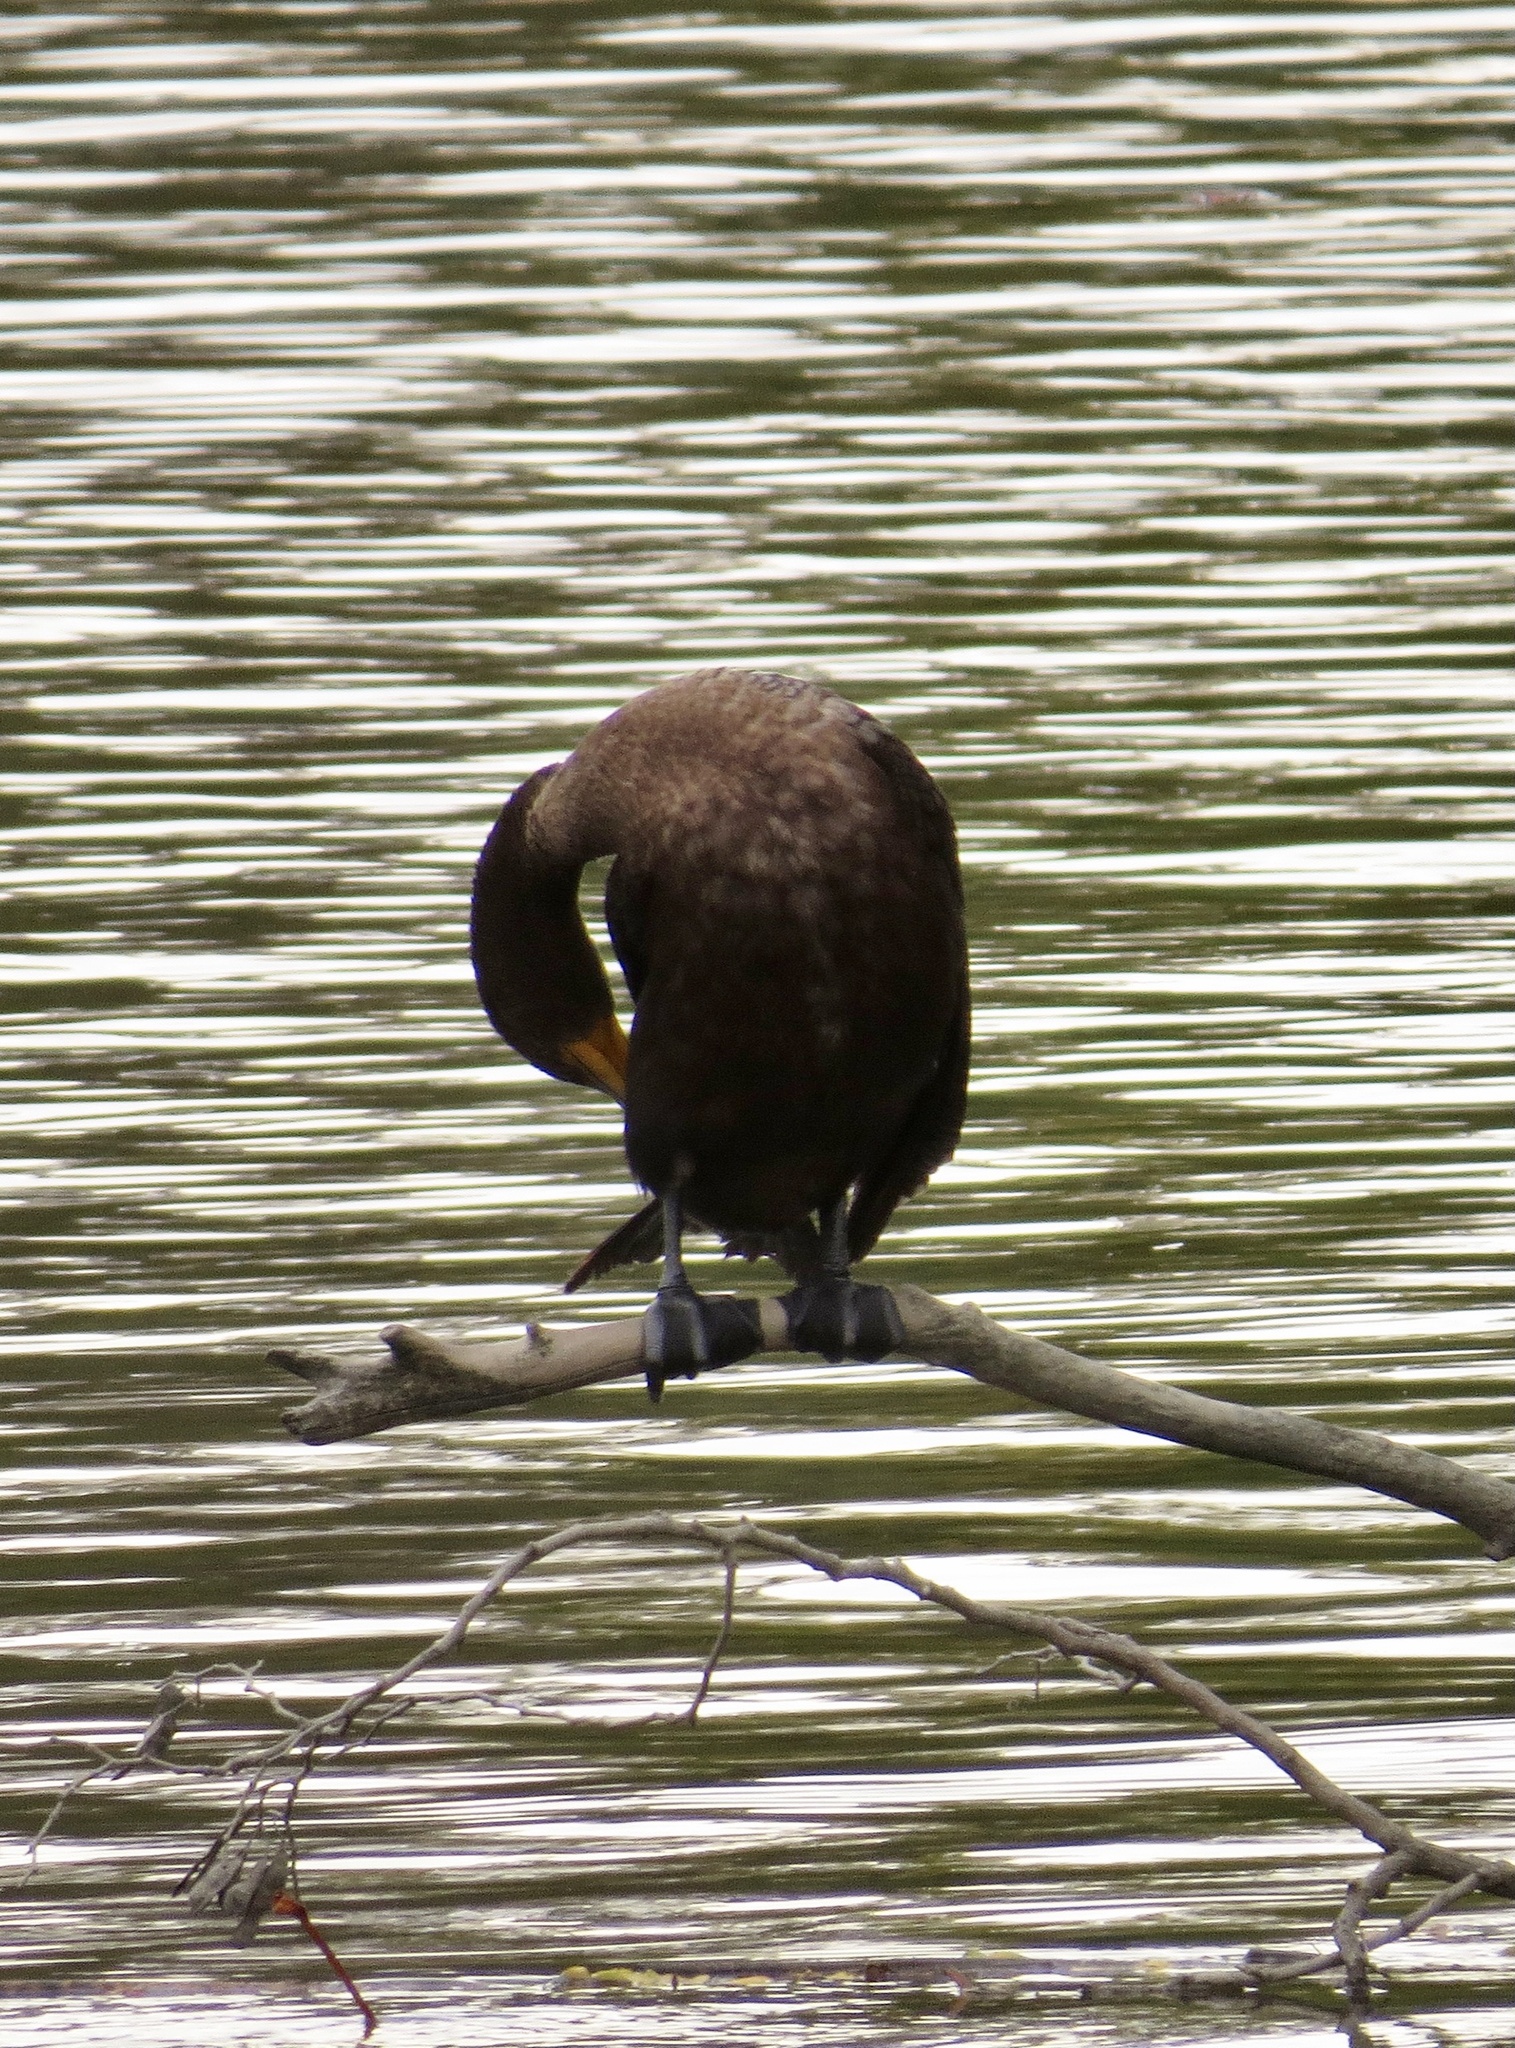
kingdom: Animalia
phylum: Chordata
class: Aves
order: Suliformes
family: Phalacrocoracidae
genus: Phalacrocorax
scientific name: Phalacrocorax auritus
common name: Double-crested cormorant
